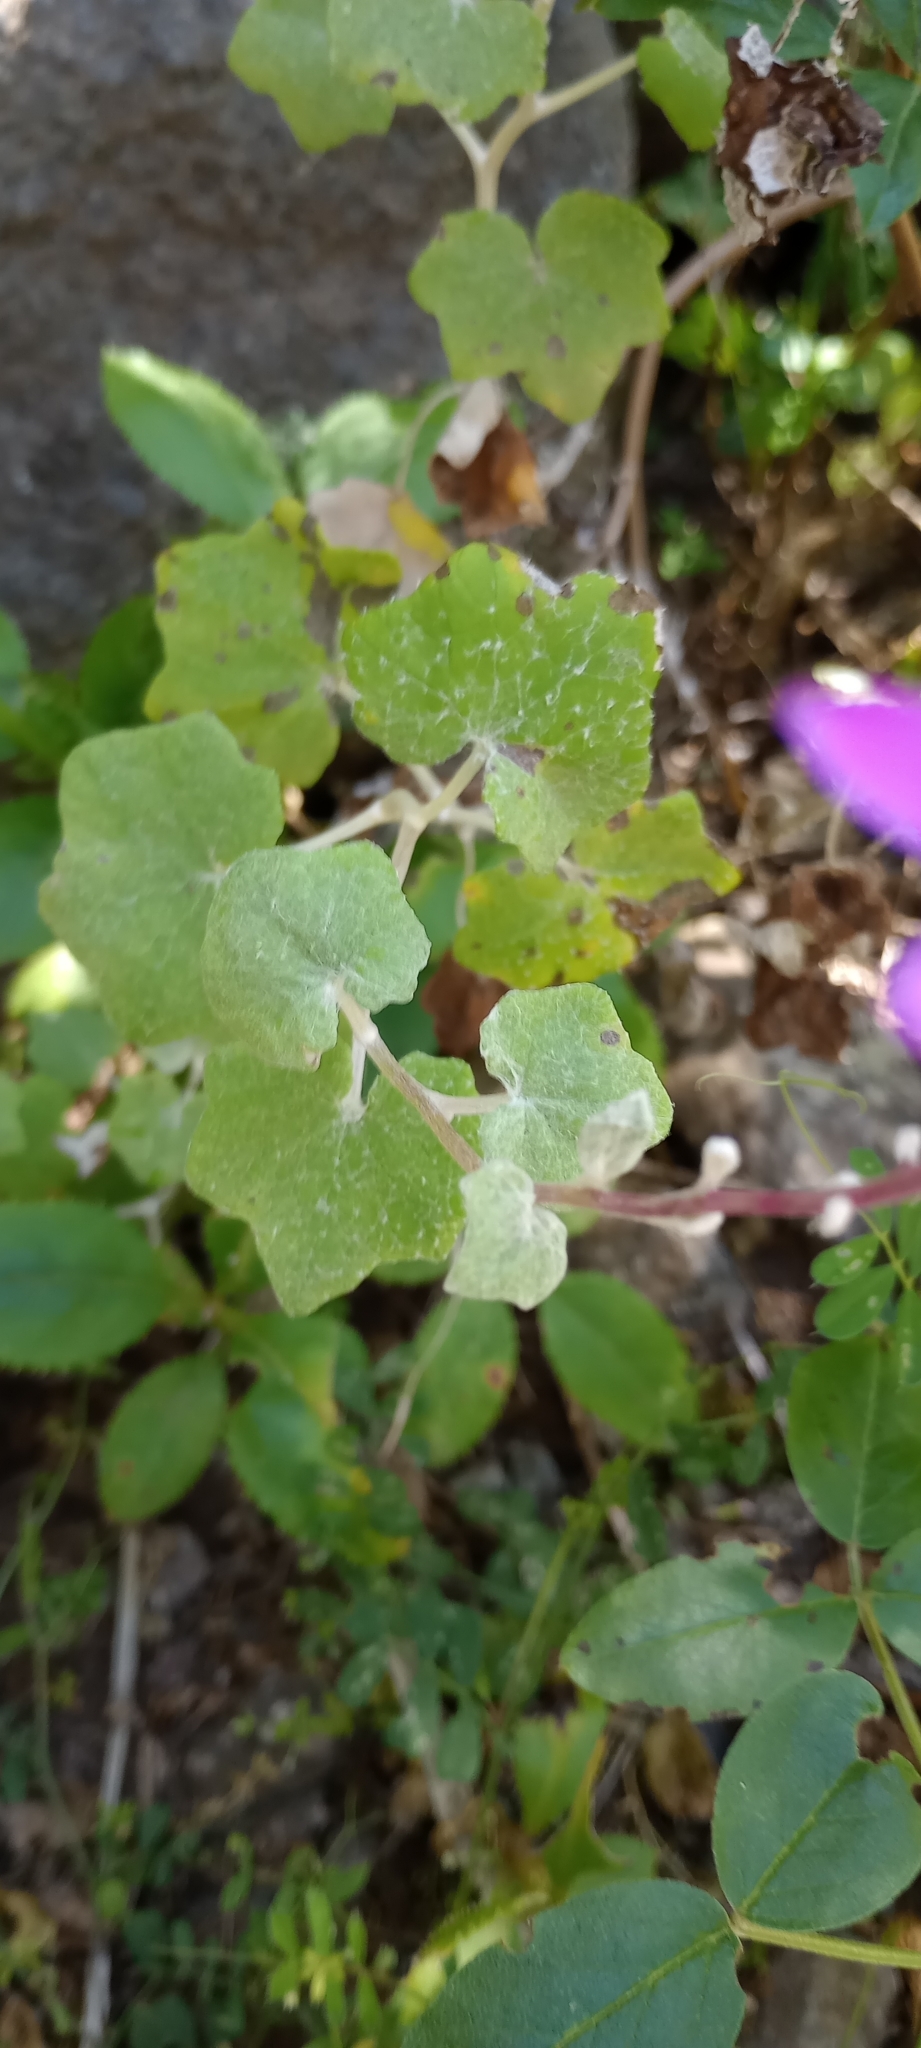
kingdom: Plantae
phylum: Tracheophyta
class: Magnoliopsida
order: Asterales
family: Asteraceae
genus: Pericallis
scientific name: Pericallis lanata
